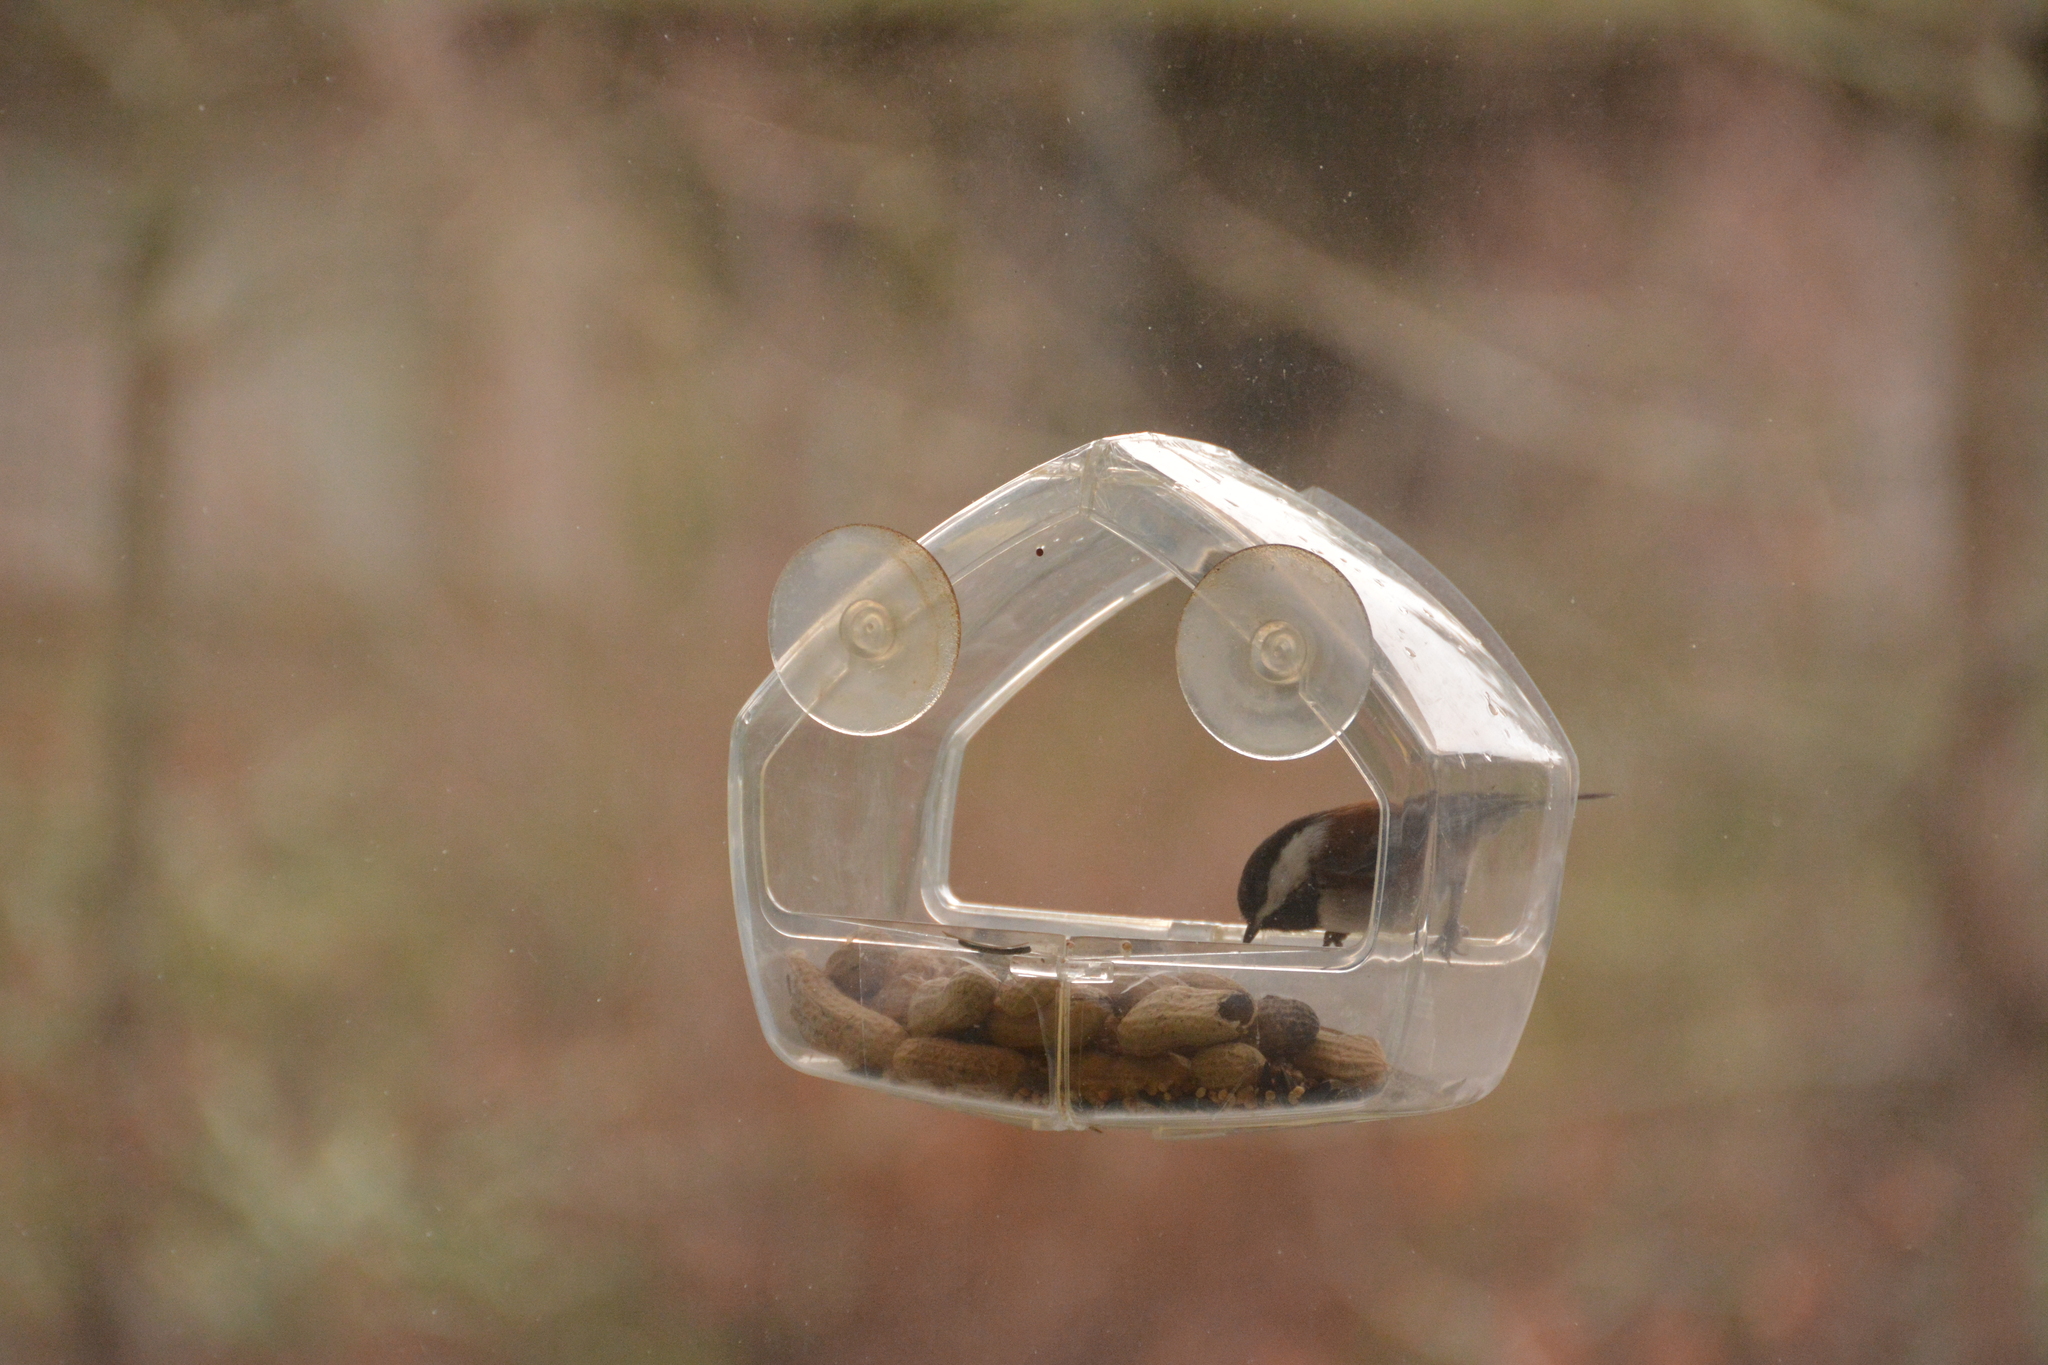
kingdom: Animalia
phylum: Chordata
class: Aves
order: Passeriformes
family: Paridae
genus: Poecile
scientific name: Poecile rufescens
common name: Chestnut-backed chickadee
